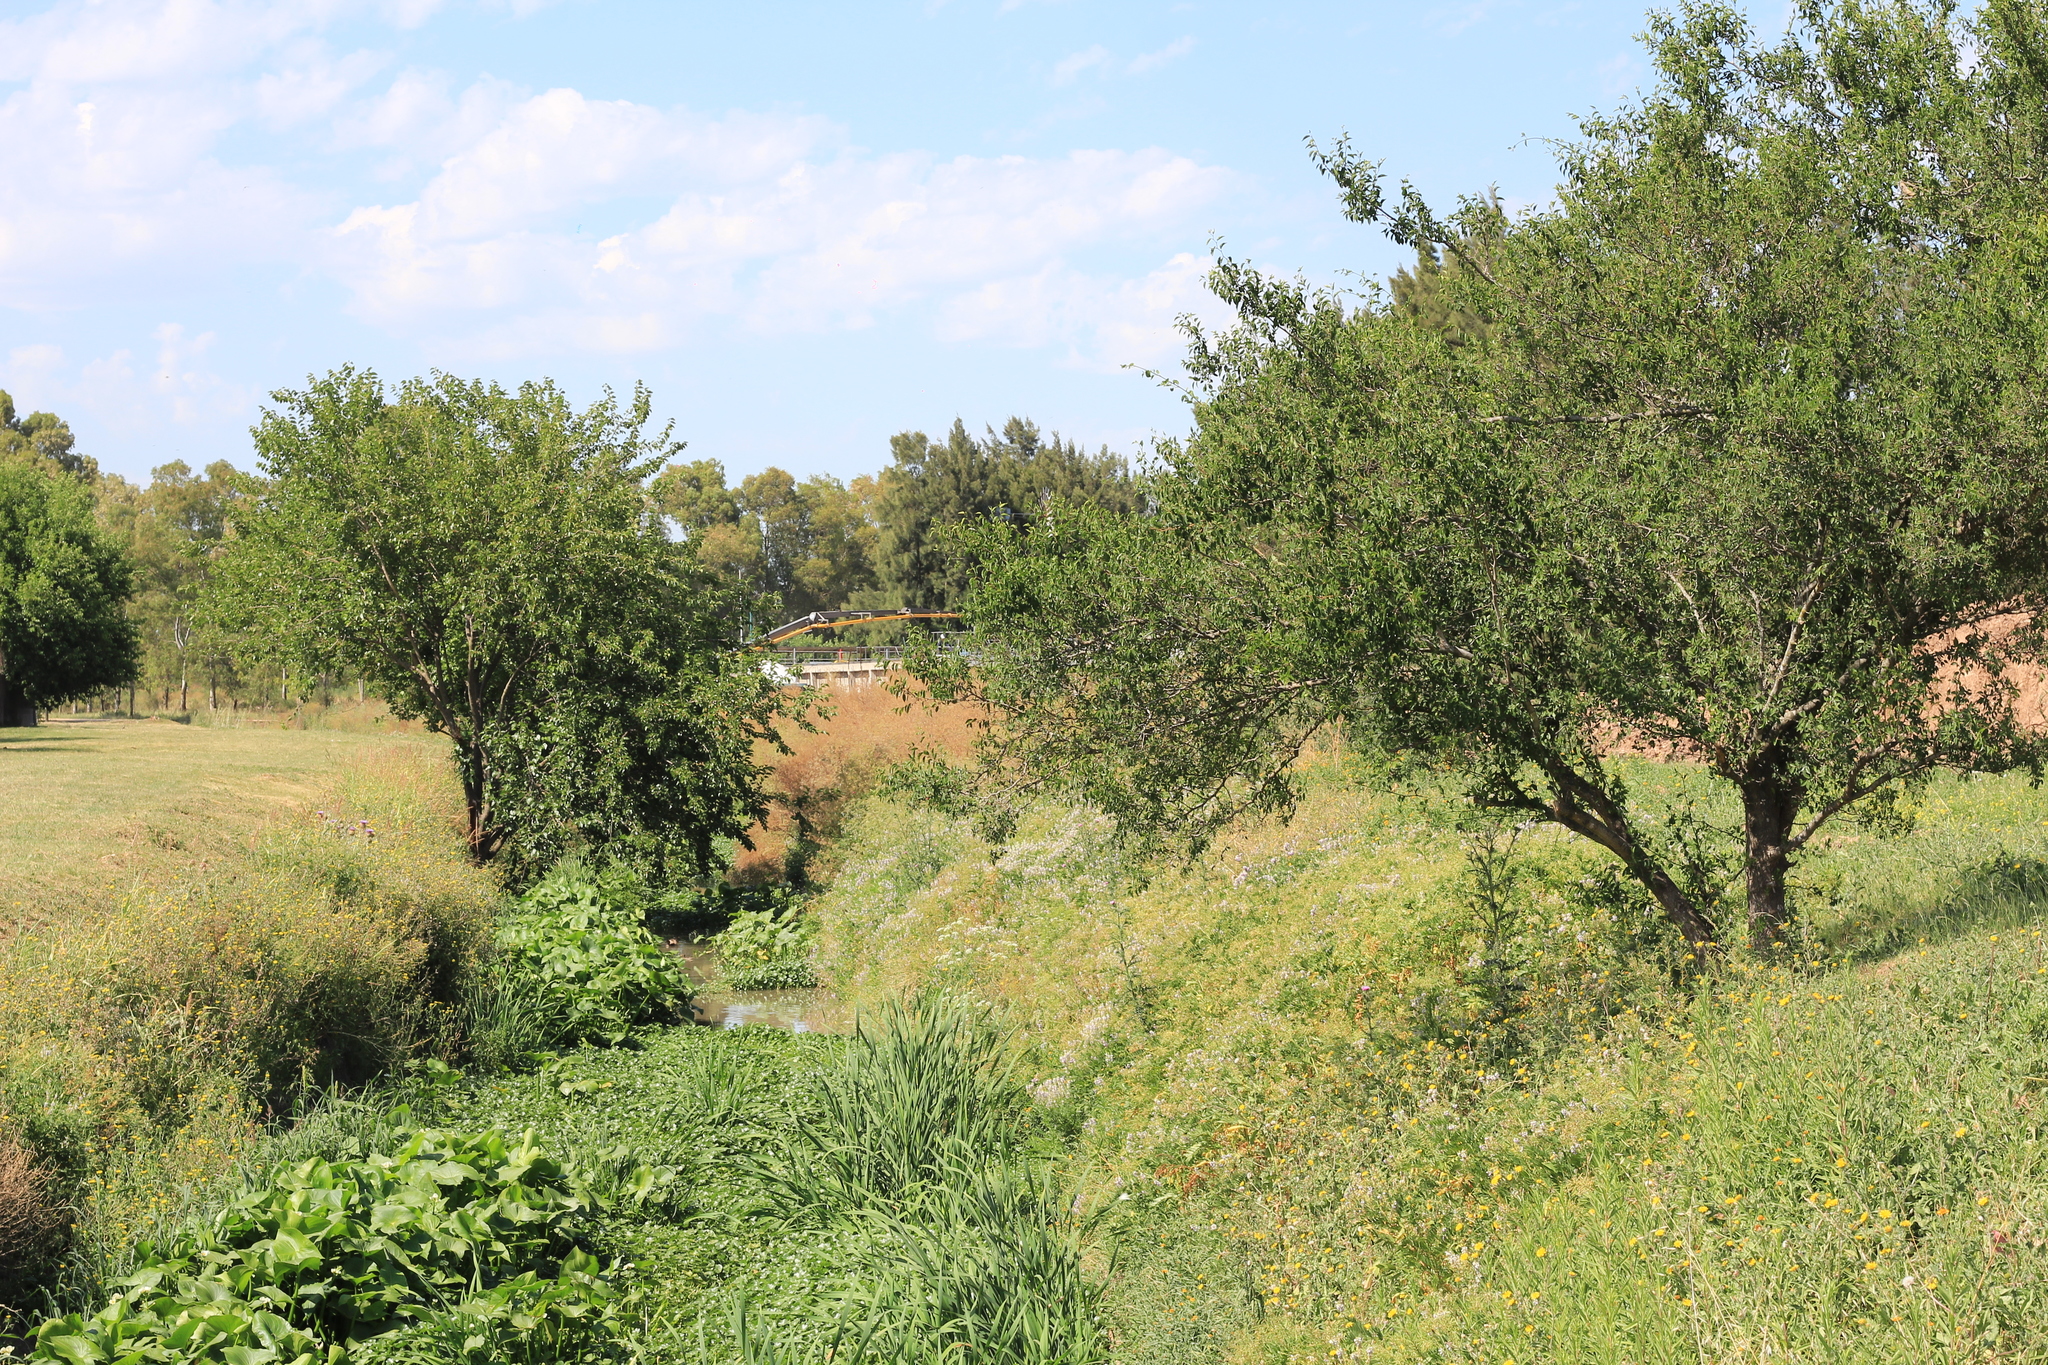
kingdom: Plantae
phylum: Tracheophyta
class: Magnoliopsida
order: Rosales
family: Cannabaceae
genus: Celtis
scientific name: Celtis tala
